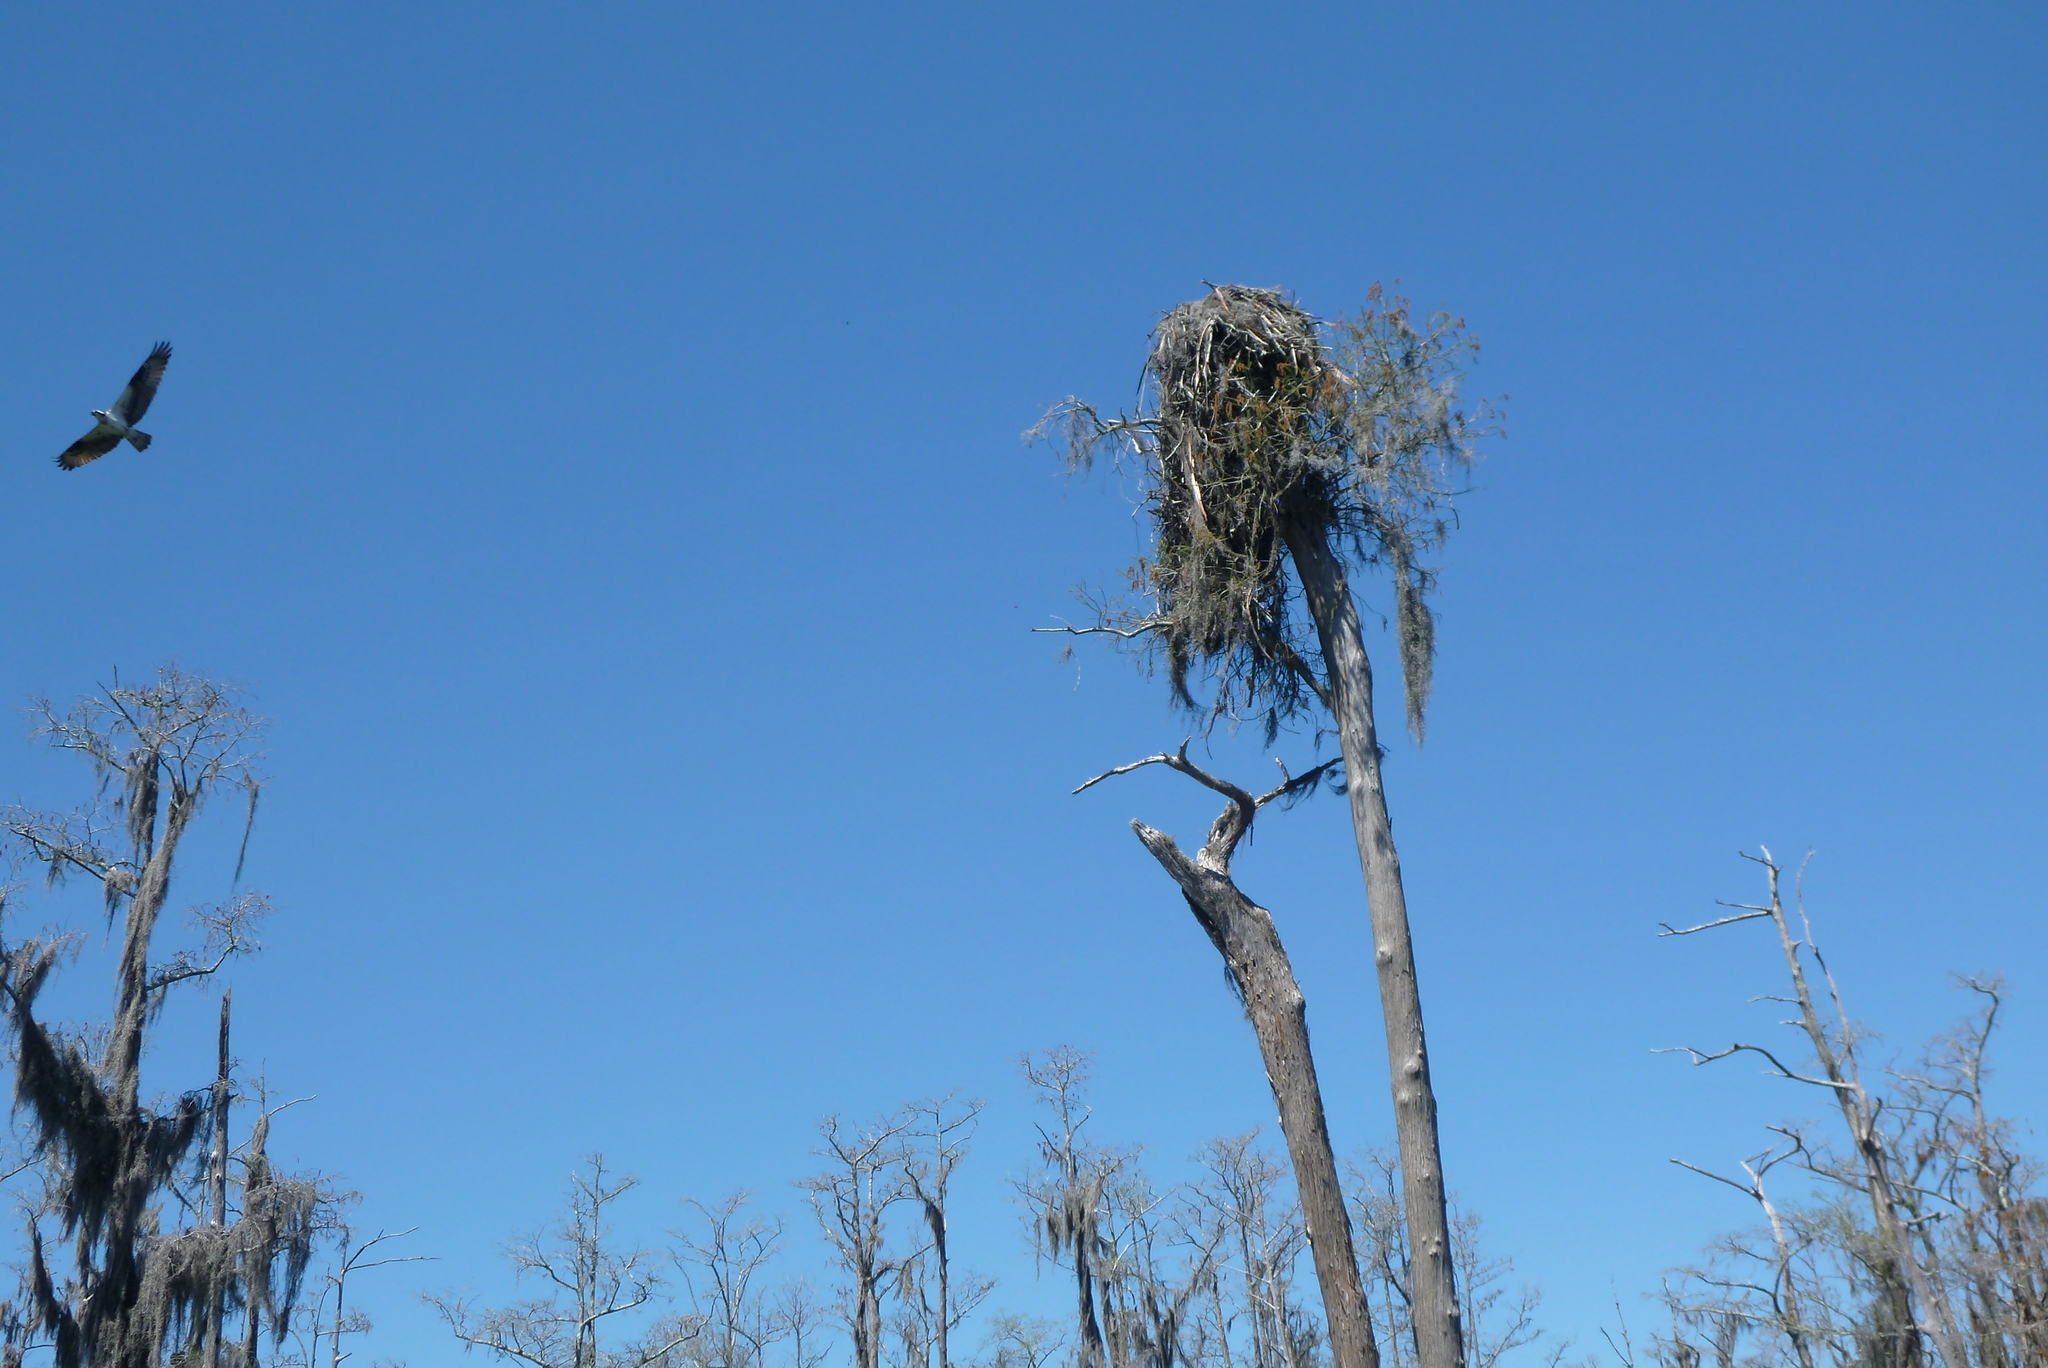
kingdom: Animalia
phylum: Chordata
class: Aves
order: Accipitriformes
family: Pandionidae
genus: Pandion
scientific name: Pandion haliaetus
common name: Osprey
